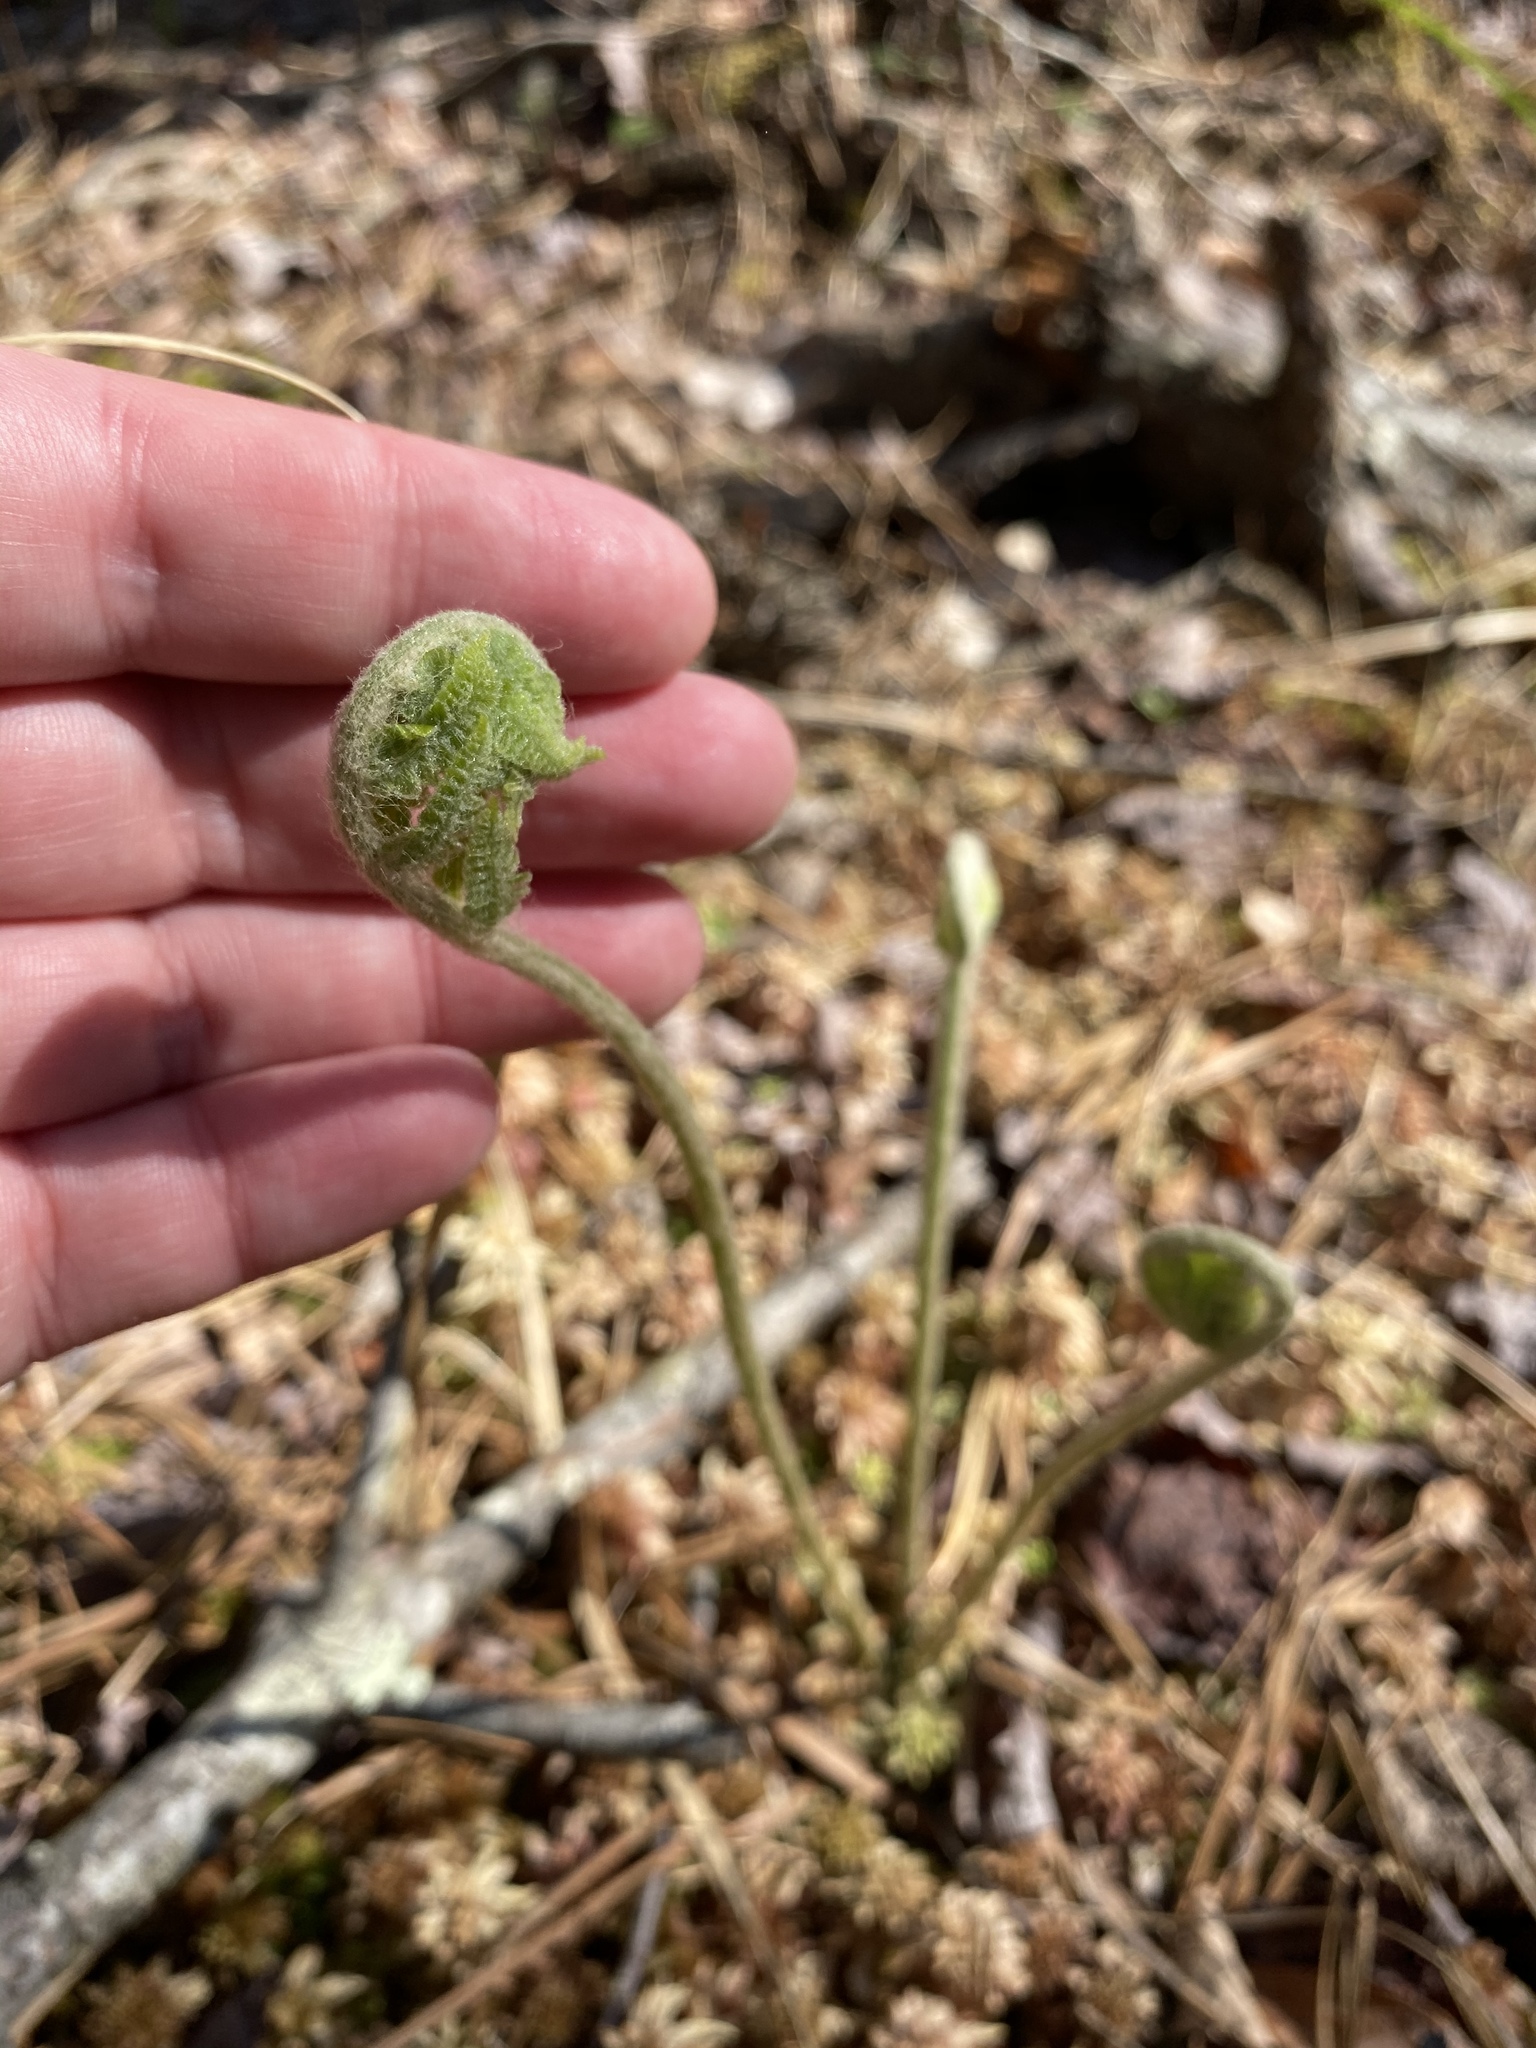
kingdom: Plantae
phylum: Tracheophyta
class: Polypodiopsida
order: Osmundales
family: Osmundaceae
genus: Osmundastrum
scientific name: Osmundastrum cinnamomeum
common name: Cinnamon fern
